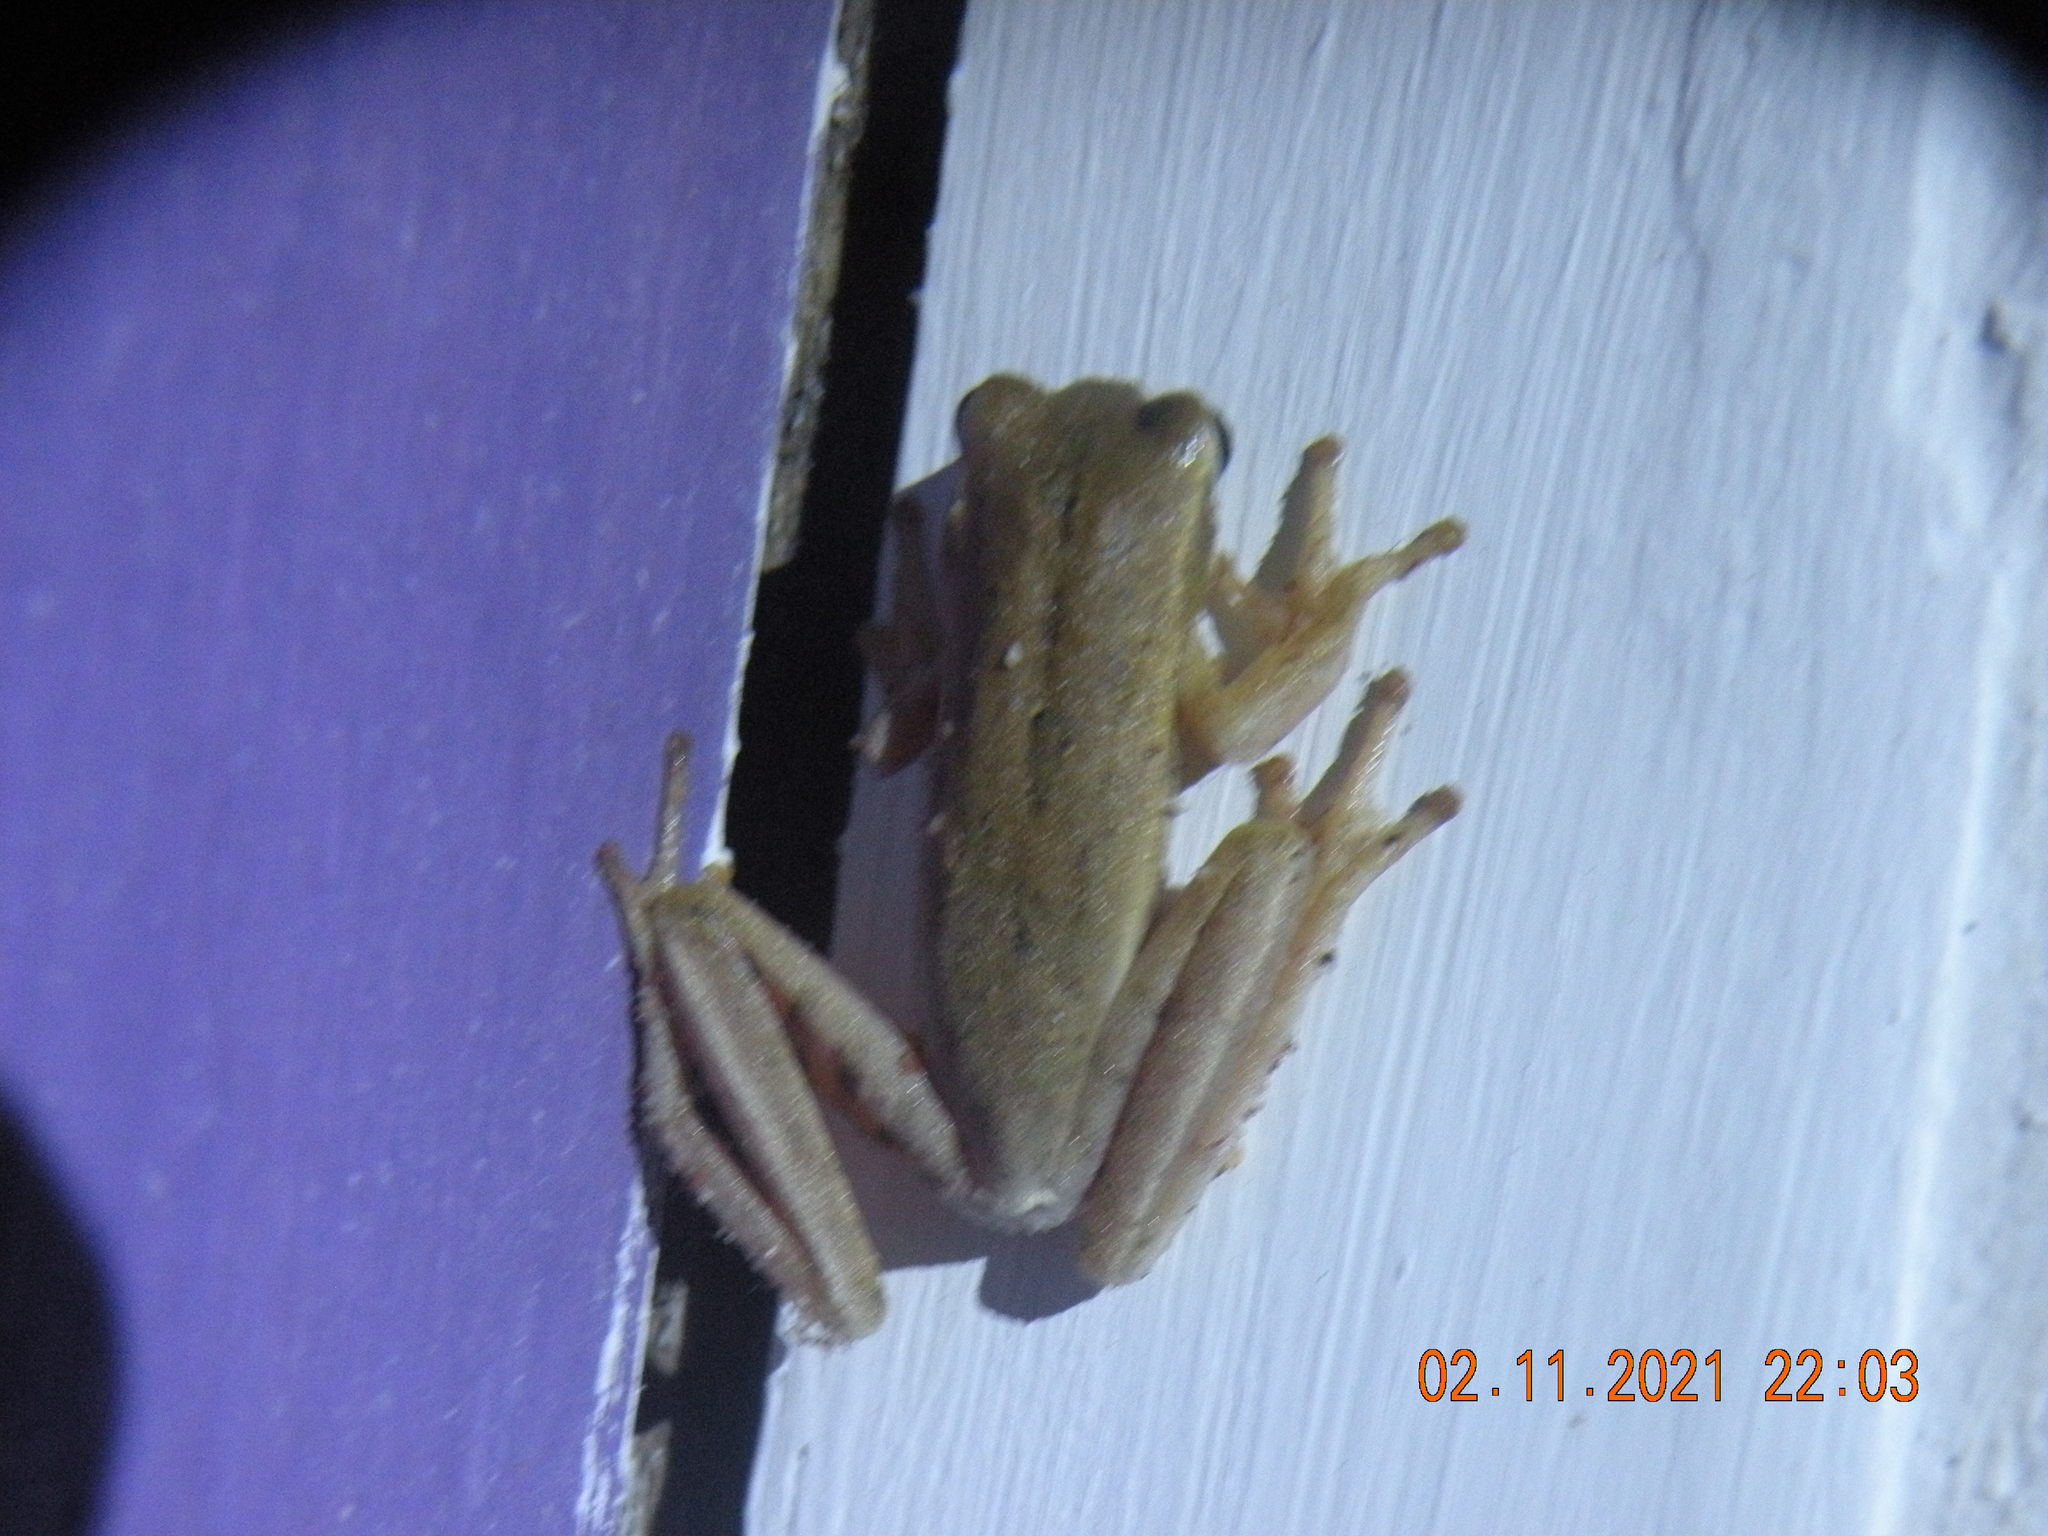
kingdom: Animalia
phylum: Chordata
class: Amphibia
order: Anura
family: Hylidae
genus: Boana
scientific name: Boana pulchella
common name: Montevideo treefrog
